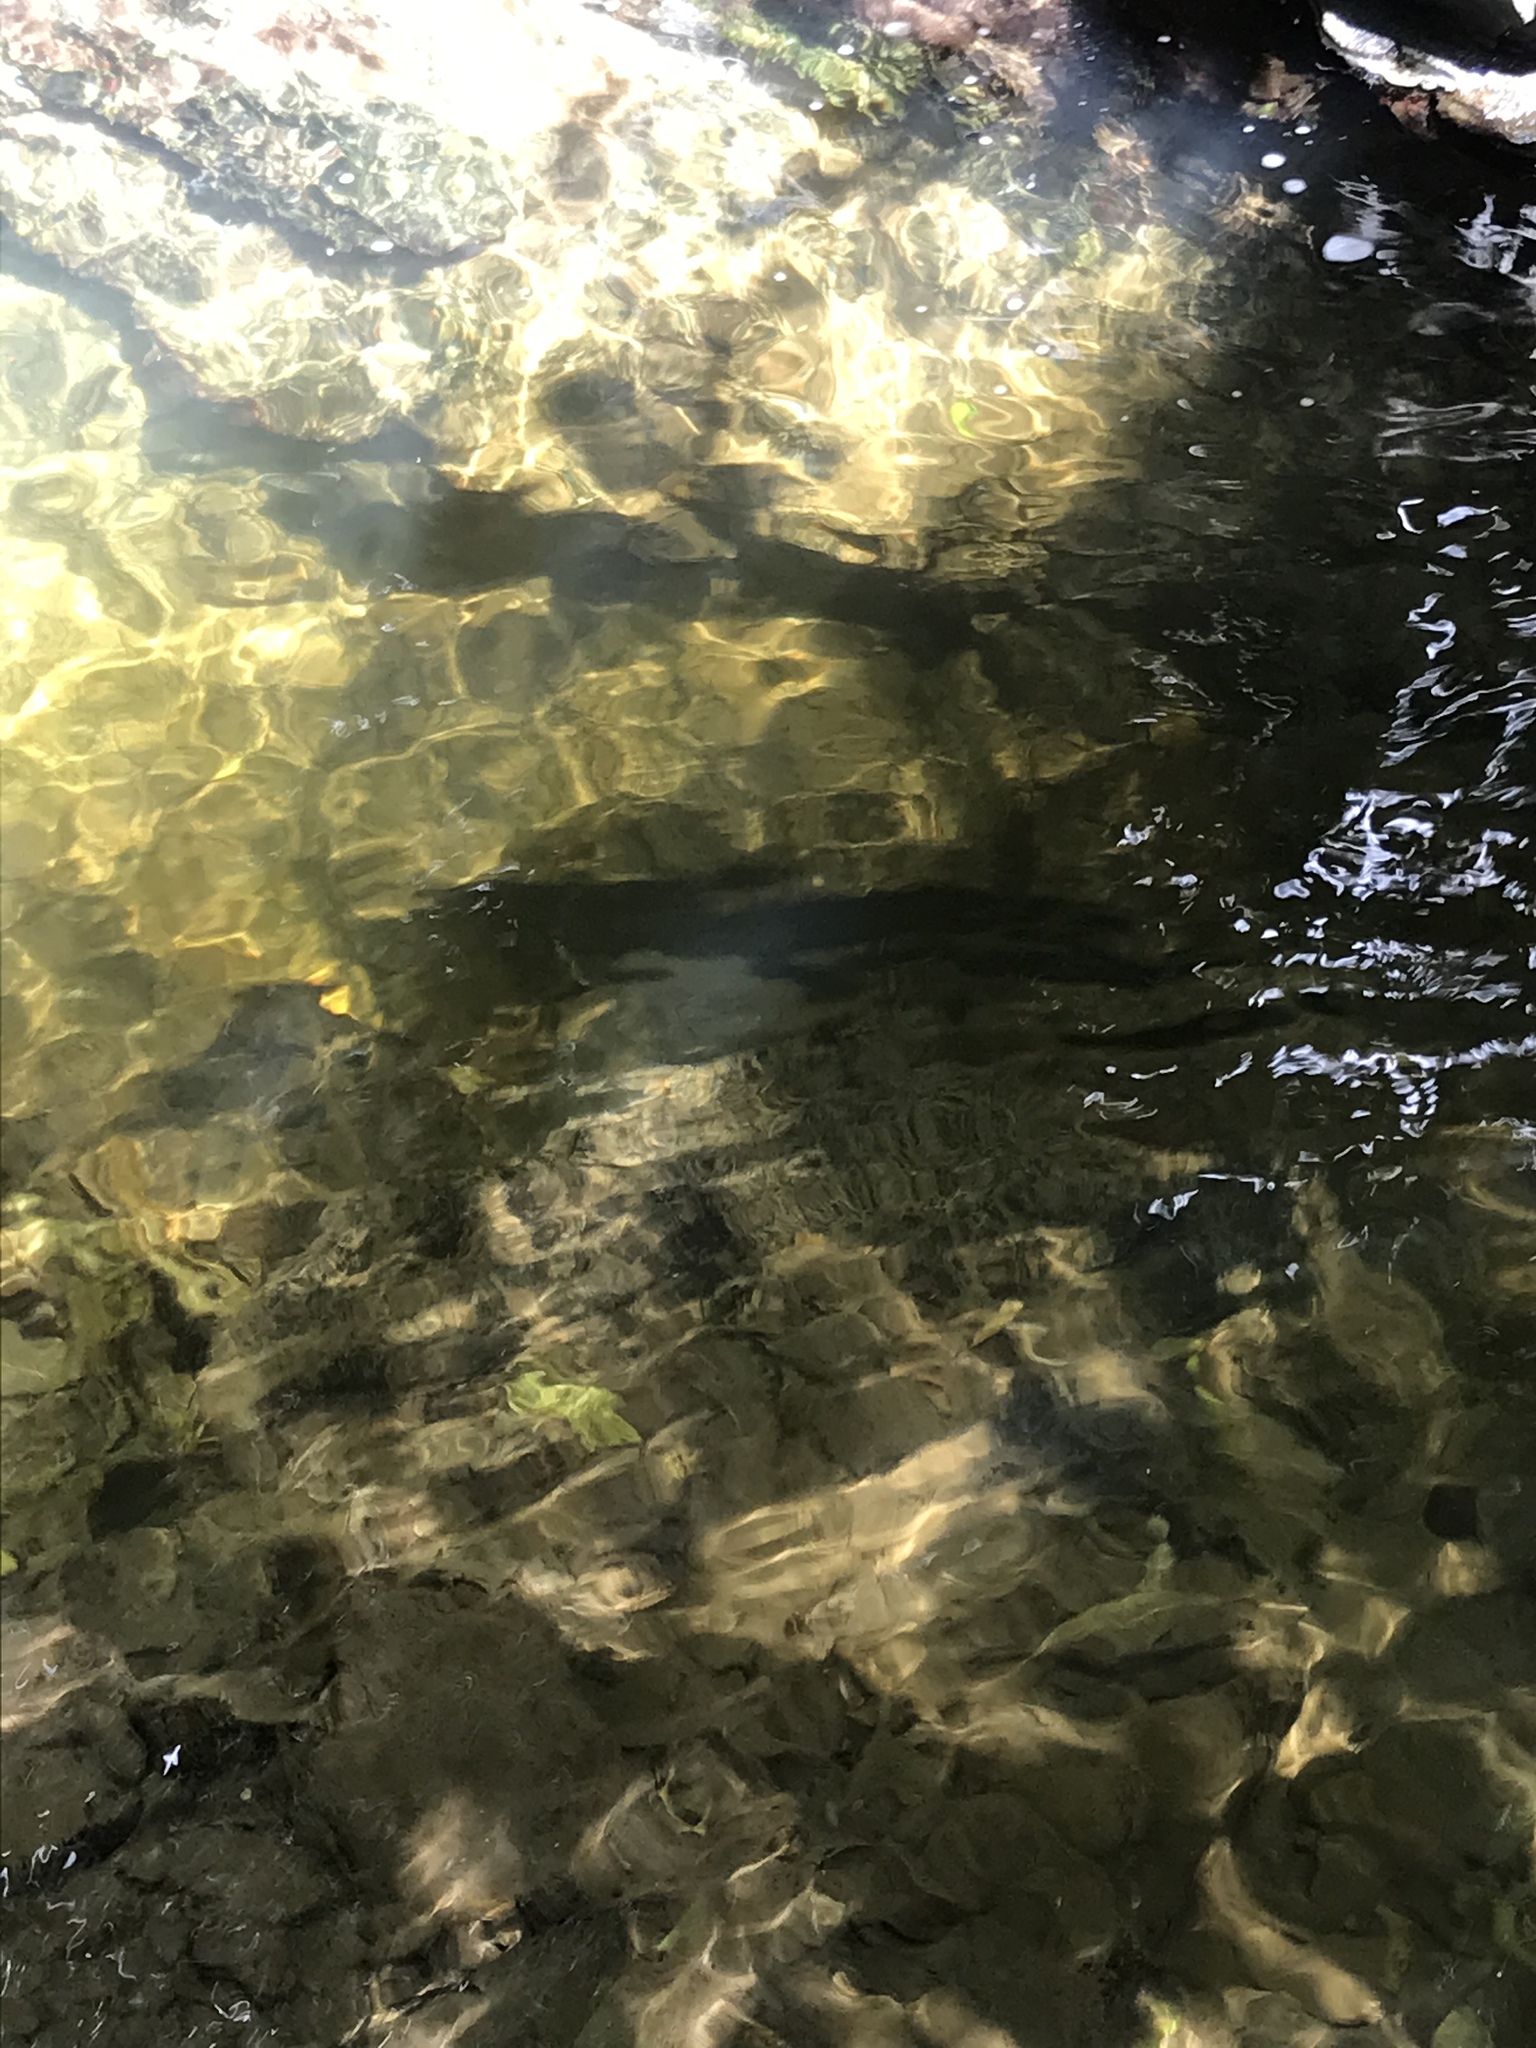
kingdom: Animalia
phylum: Chordata
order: Anguilliformes
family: Anguillidae
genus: Anguilla
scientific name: Anguilla dieffenbachii
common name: New zealand longfin eel
